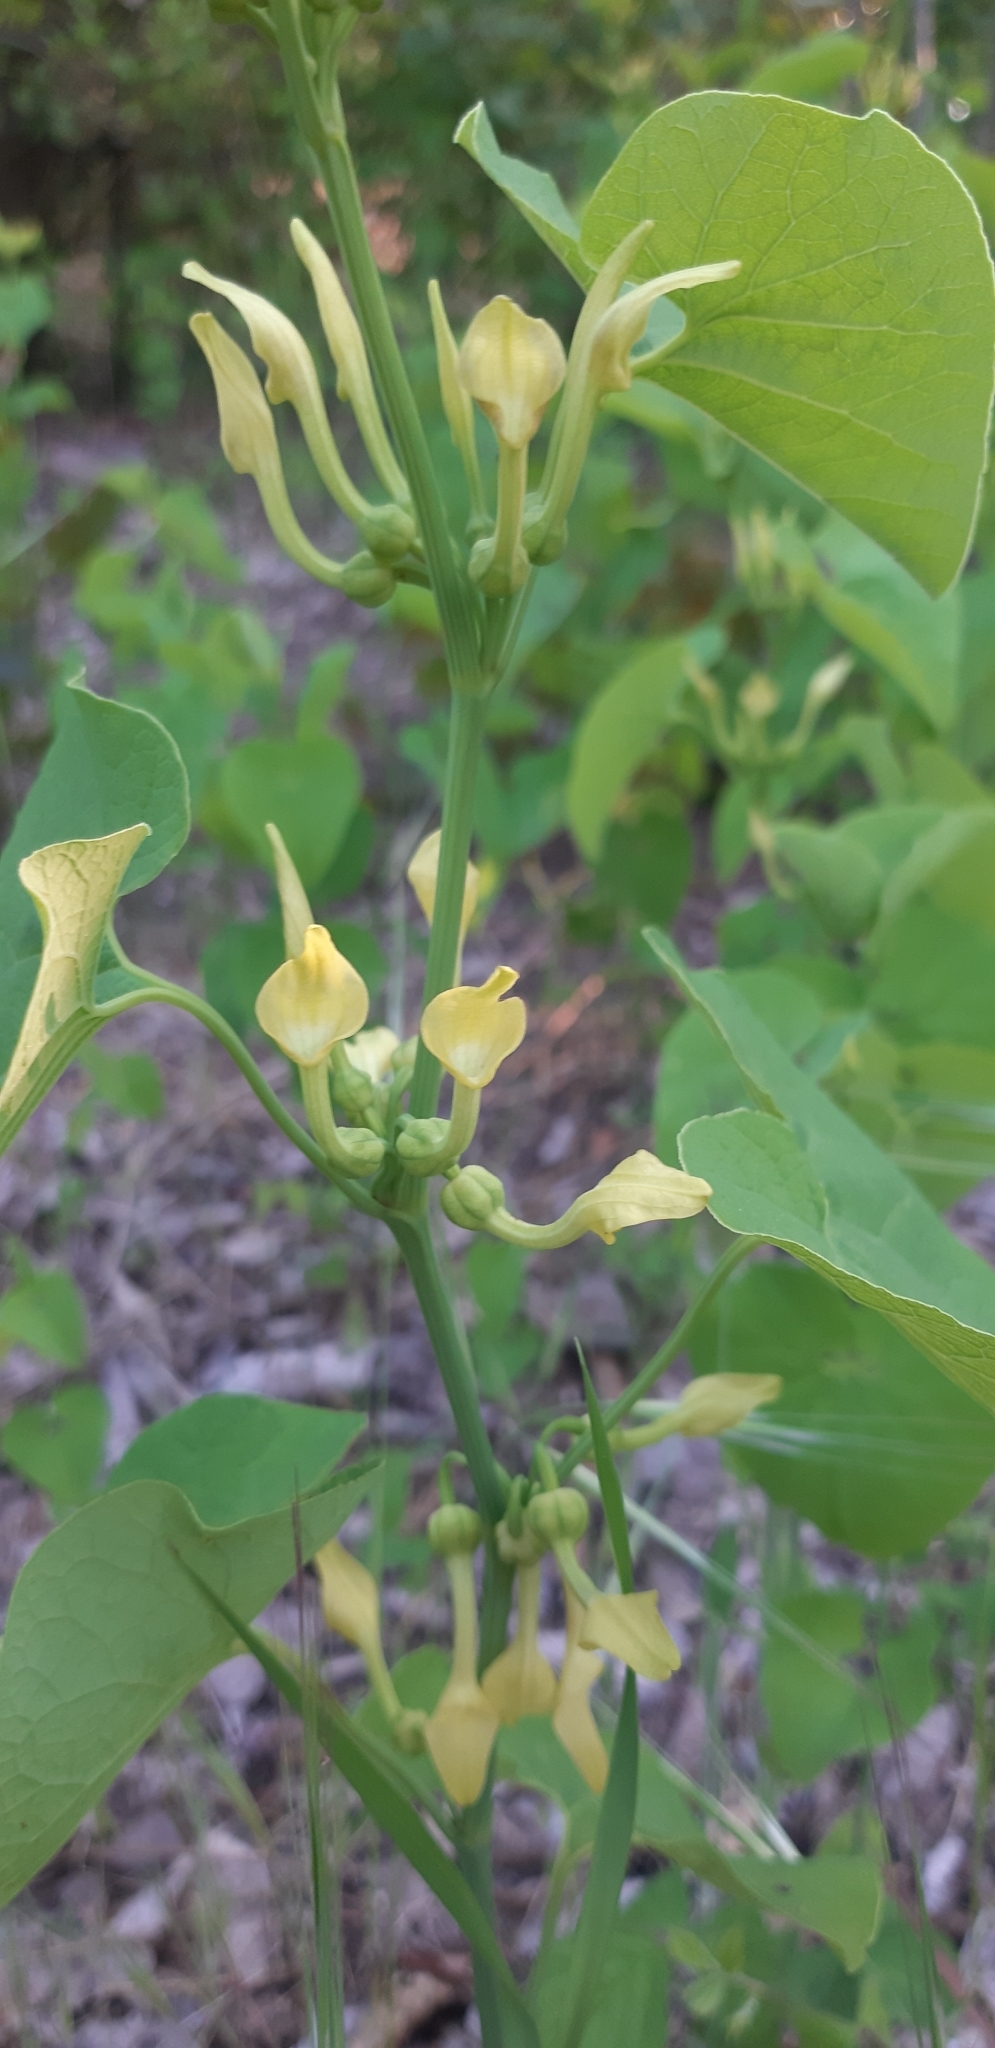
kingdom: Plantae
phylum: Tracheophyta
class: Magnoliopsida
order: Piperales
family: Aristolochiaceae
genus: Aristolochia
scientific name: Aristolochia clematitis
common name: Birthwort
